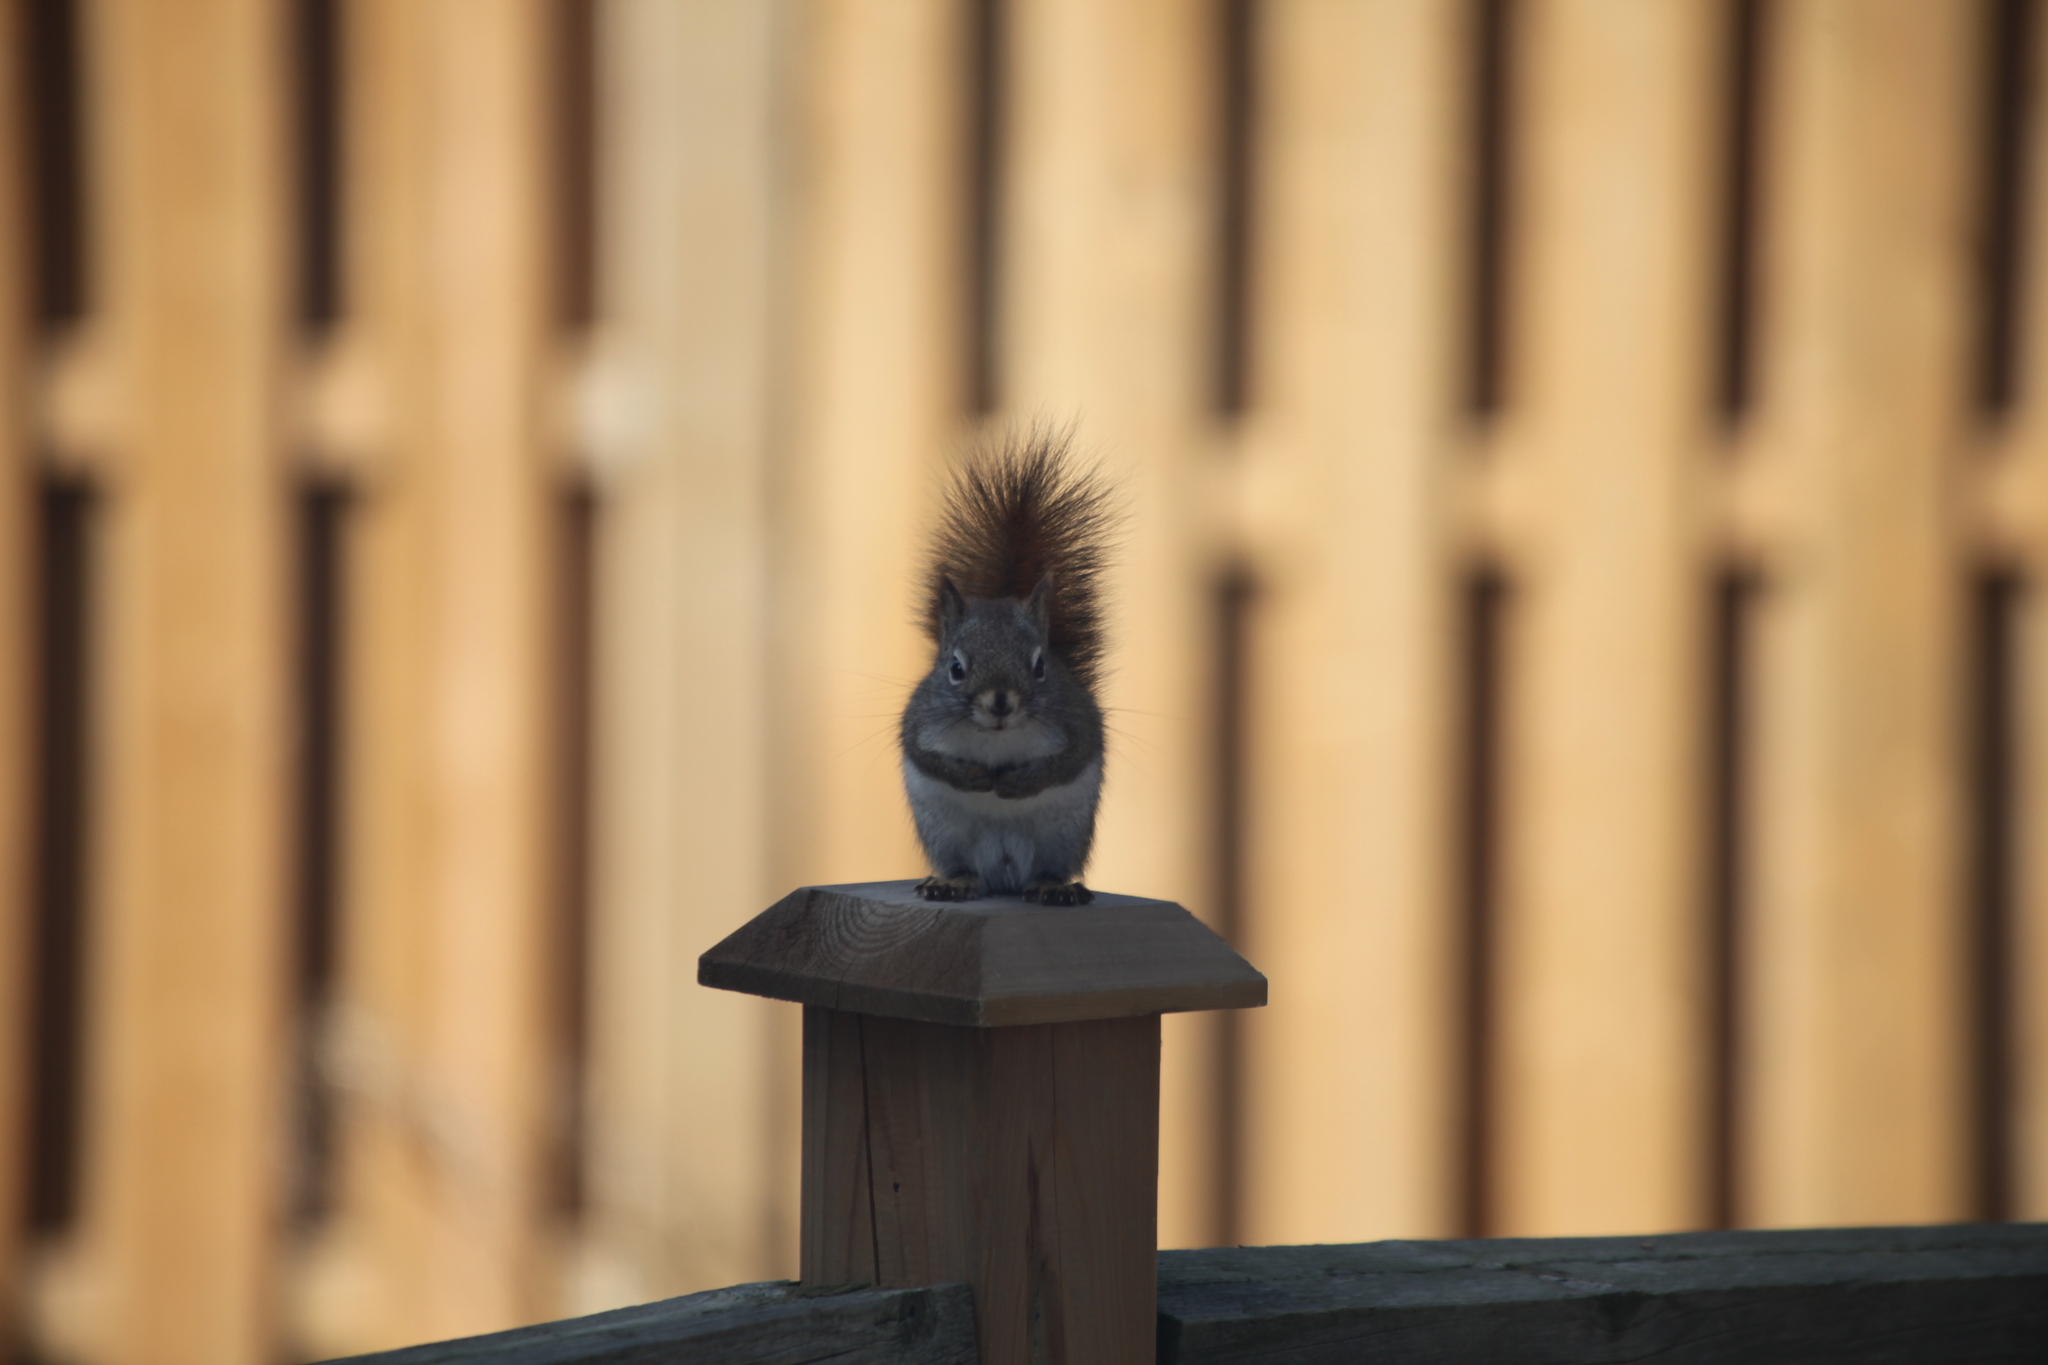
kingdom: Animalia
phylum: Chordata
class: Mammalia
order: Rodentia
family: Sciuridae
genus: Tamiasciurus
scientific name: Tamiasciurus hudsonicus
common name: Red squirrel
